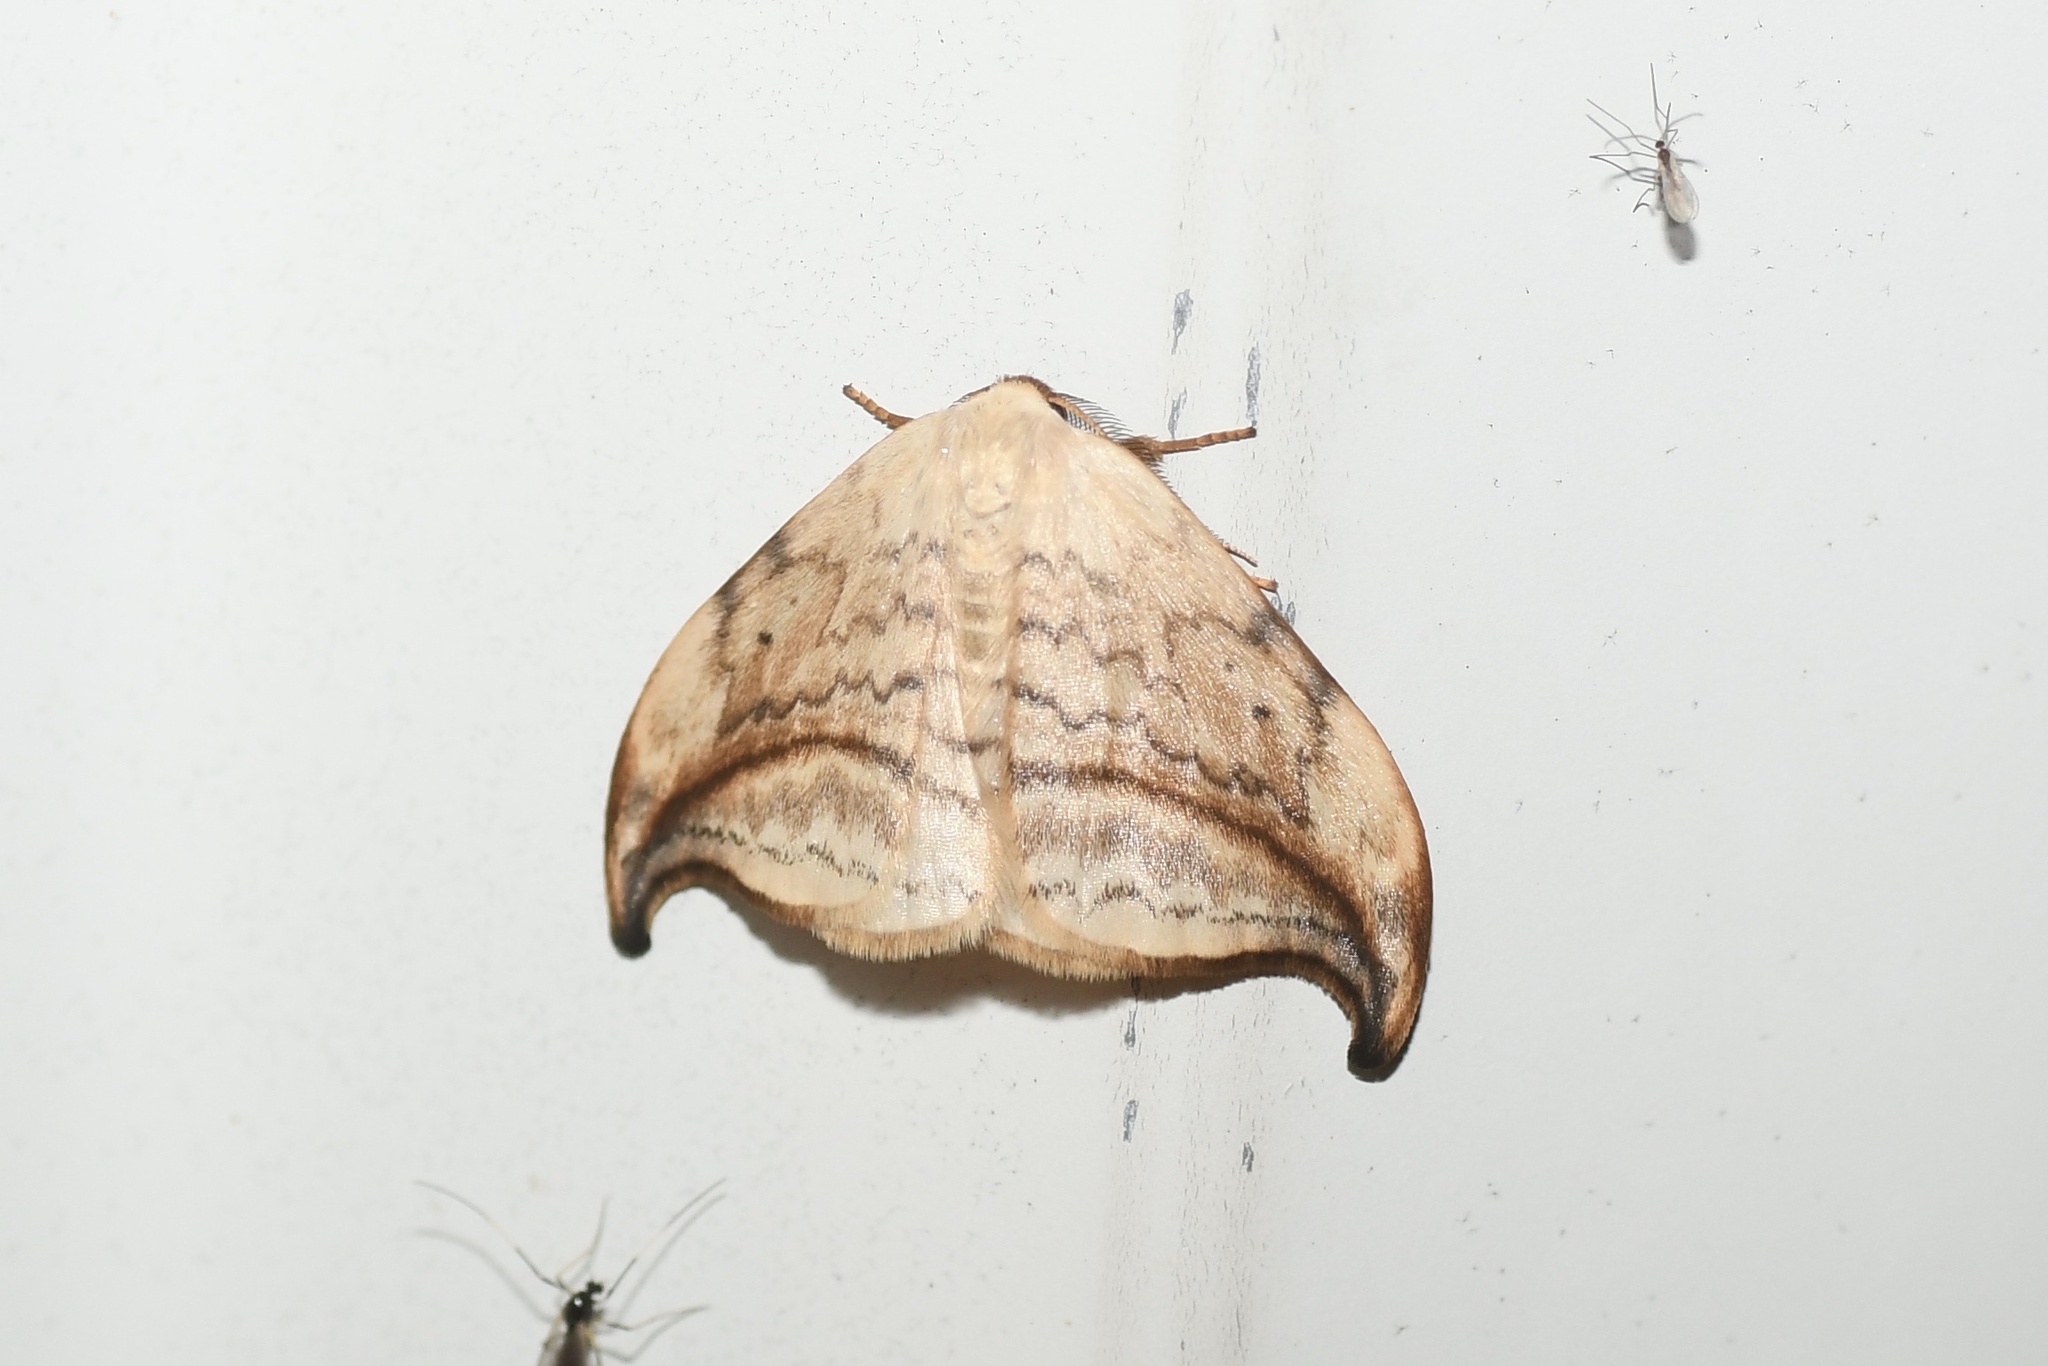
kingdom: Animalia
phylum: Arthropoda
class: Insecta
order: Lepidoptera
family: Drepanidae
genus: Drepana
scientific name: Drepana arcuata
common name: Arched hooktip moth
